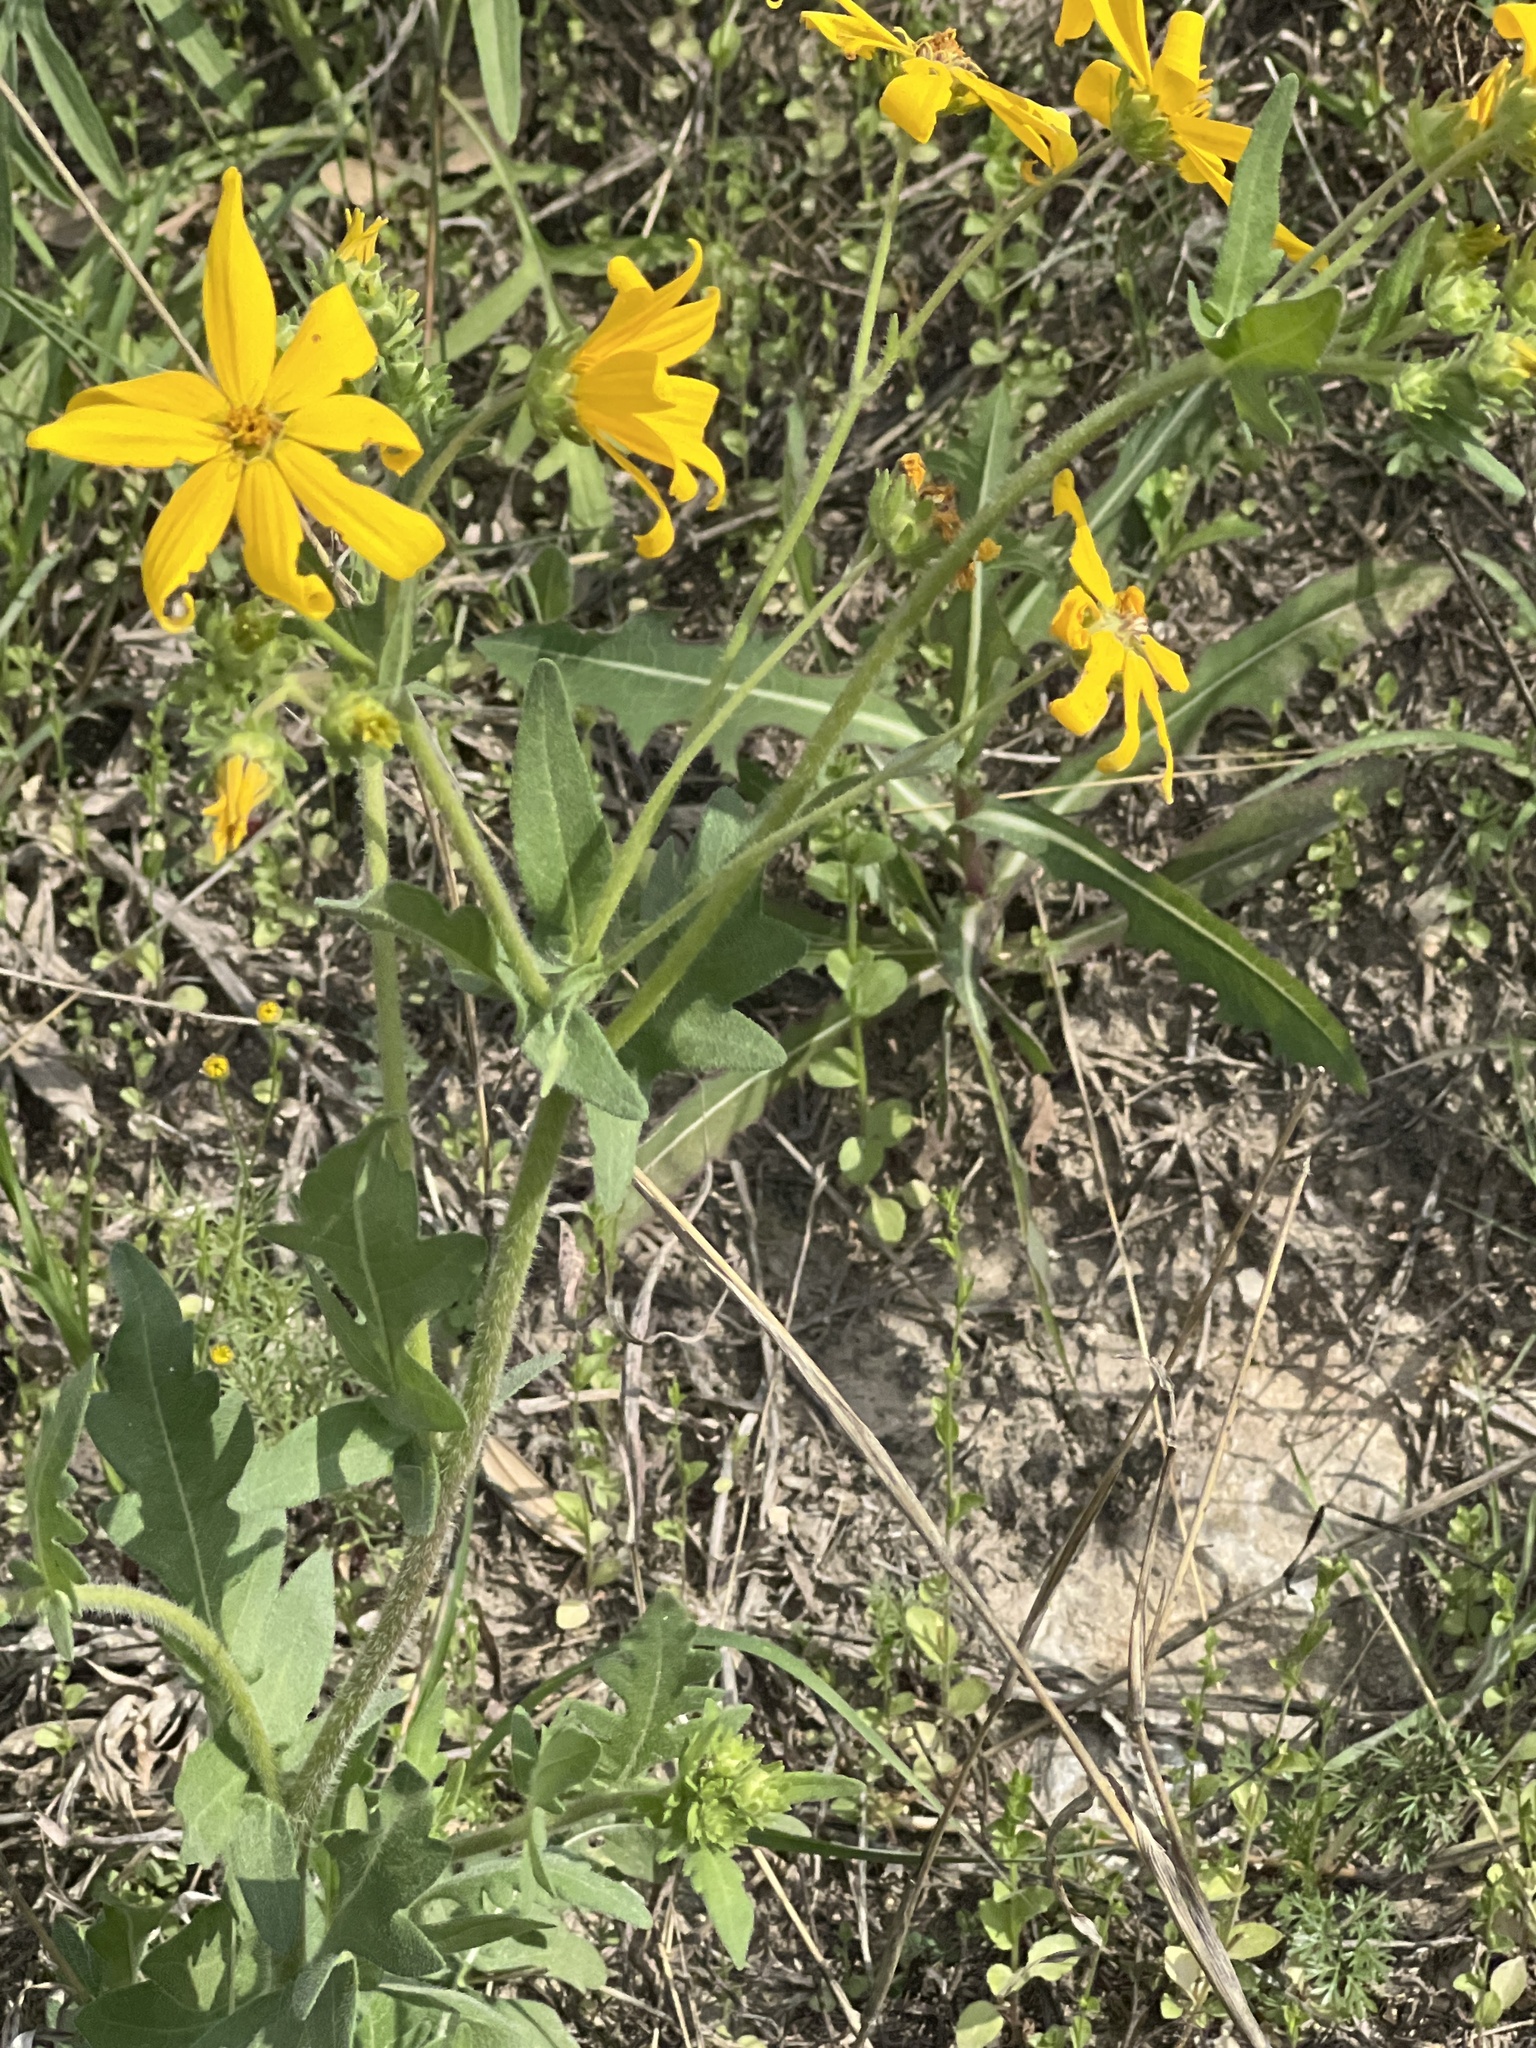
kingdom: Plantae
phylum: Tracheophyta
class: Magnoliopsida
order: Asterales
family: Asteraceae
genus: Engelmannia
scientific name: Engelmannia peristenia
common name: Engelmann's daisy
